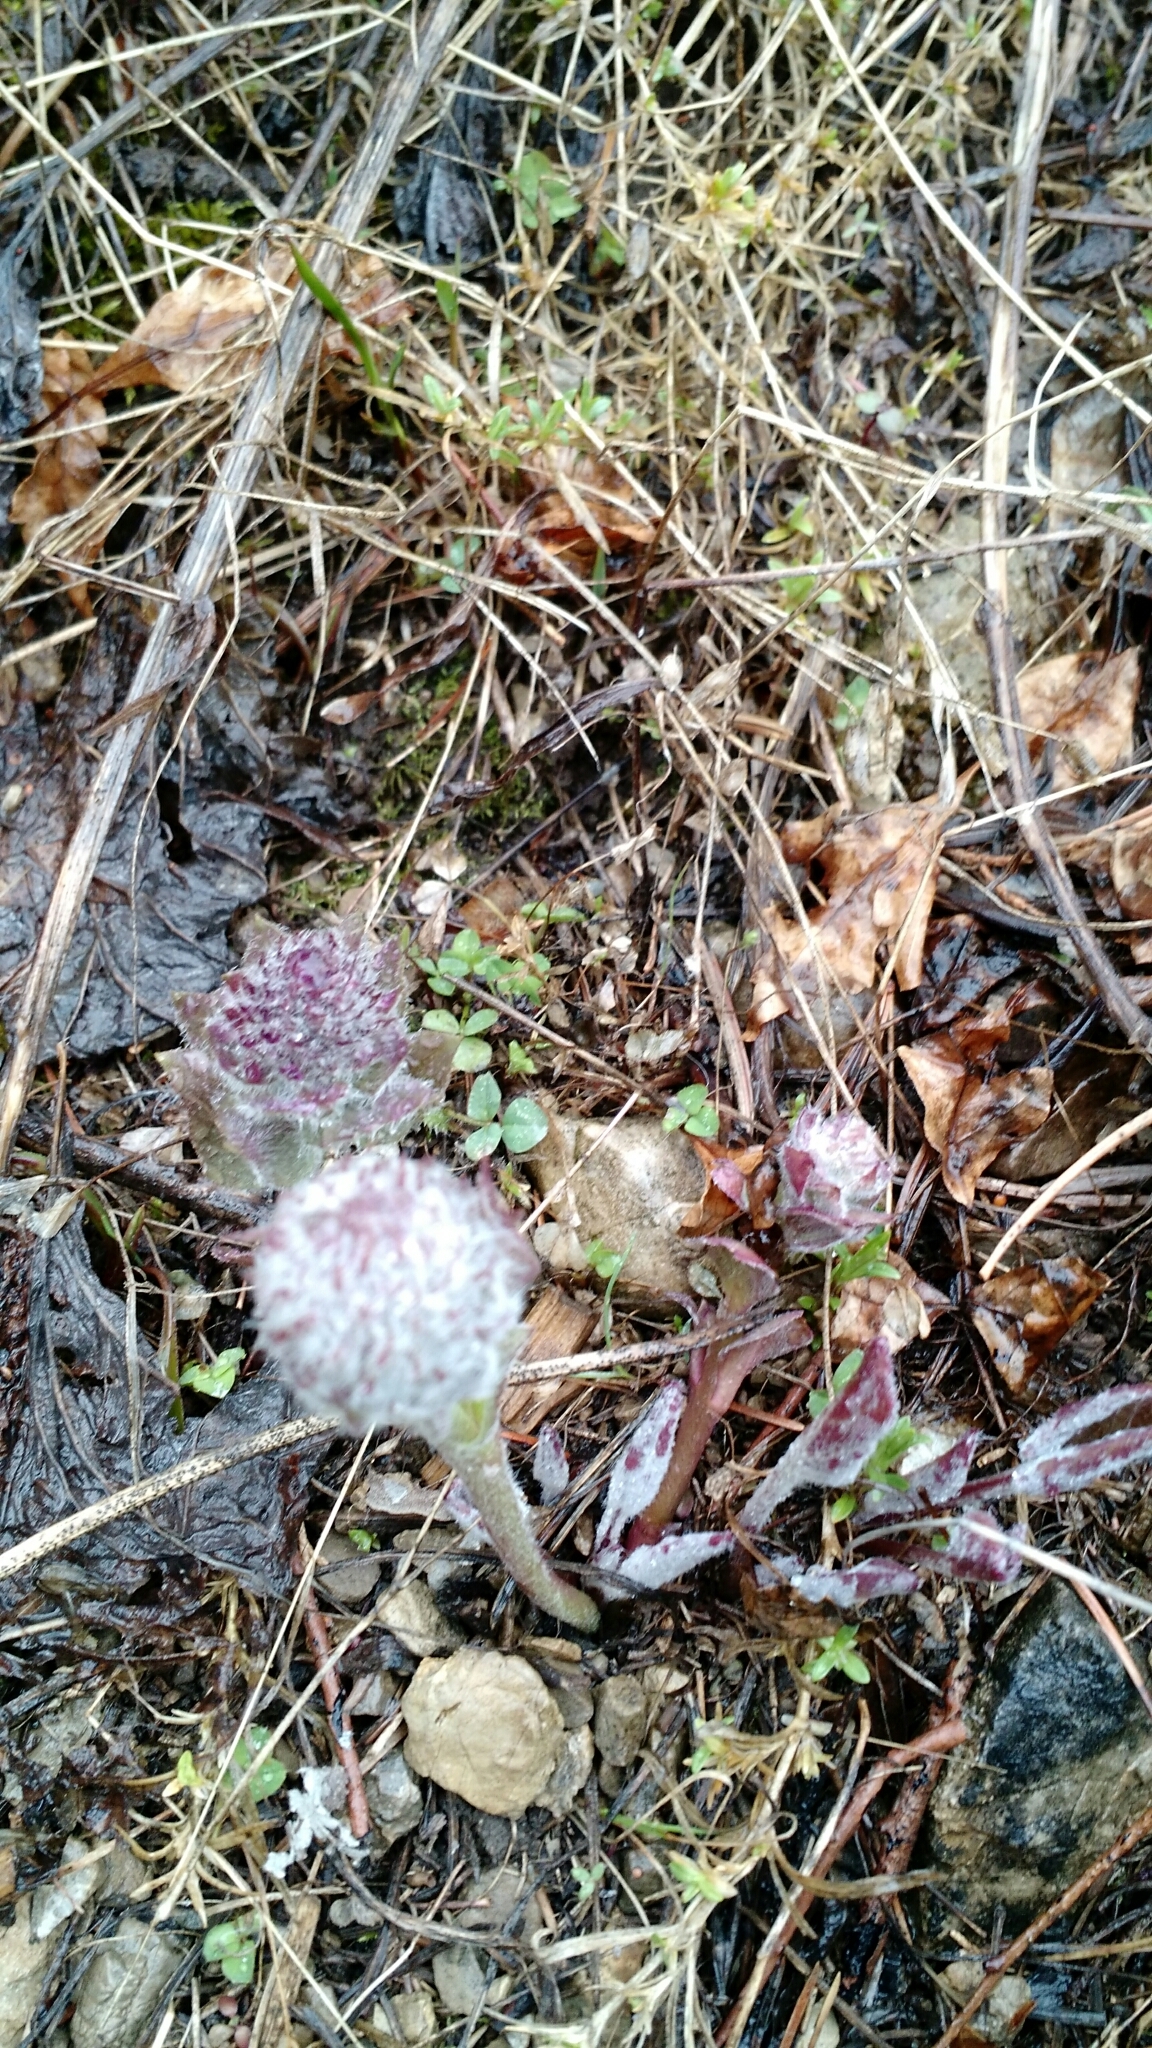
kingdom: Plantae
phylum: Tracheophyta
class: Magnoliopsida
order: Lamiales
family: Plantaginaceae
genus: Synthyris
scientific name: Synthyris wyomingensis
